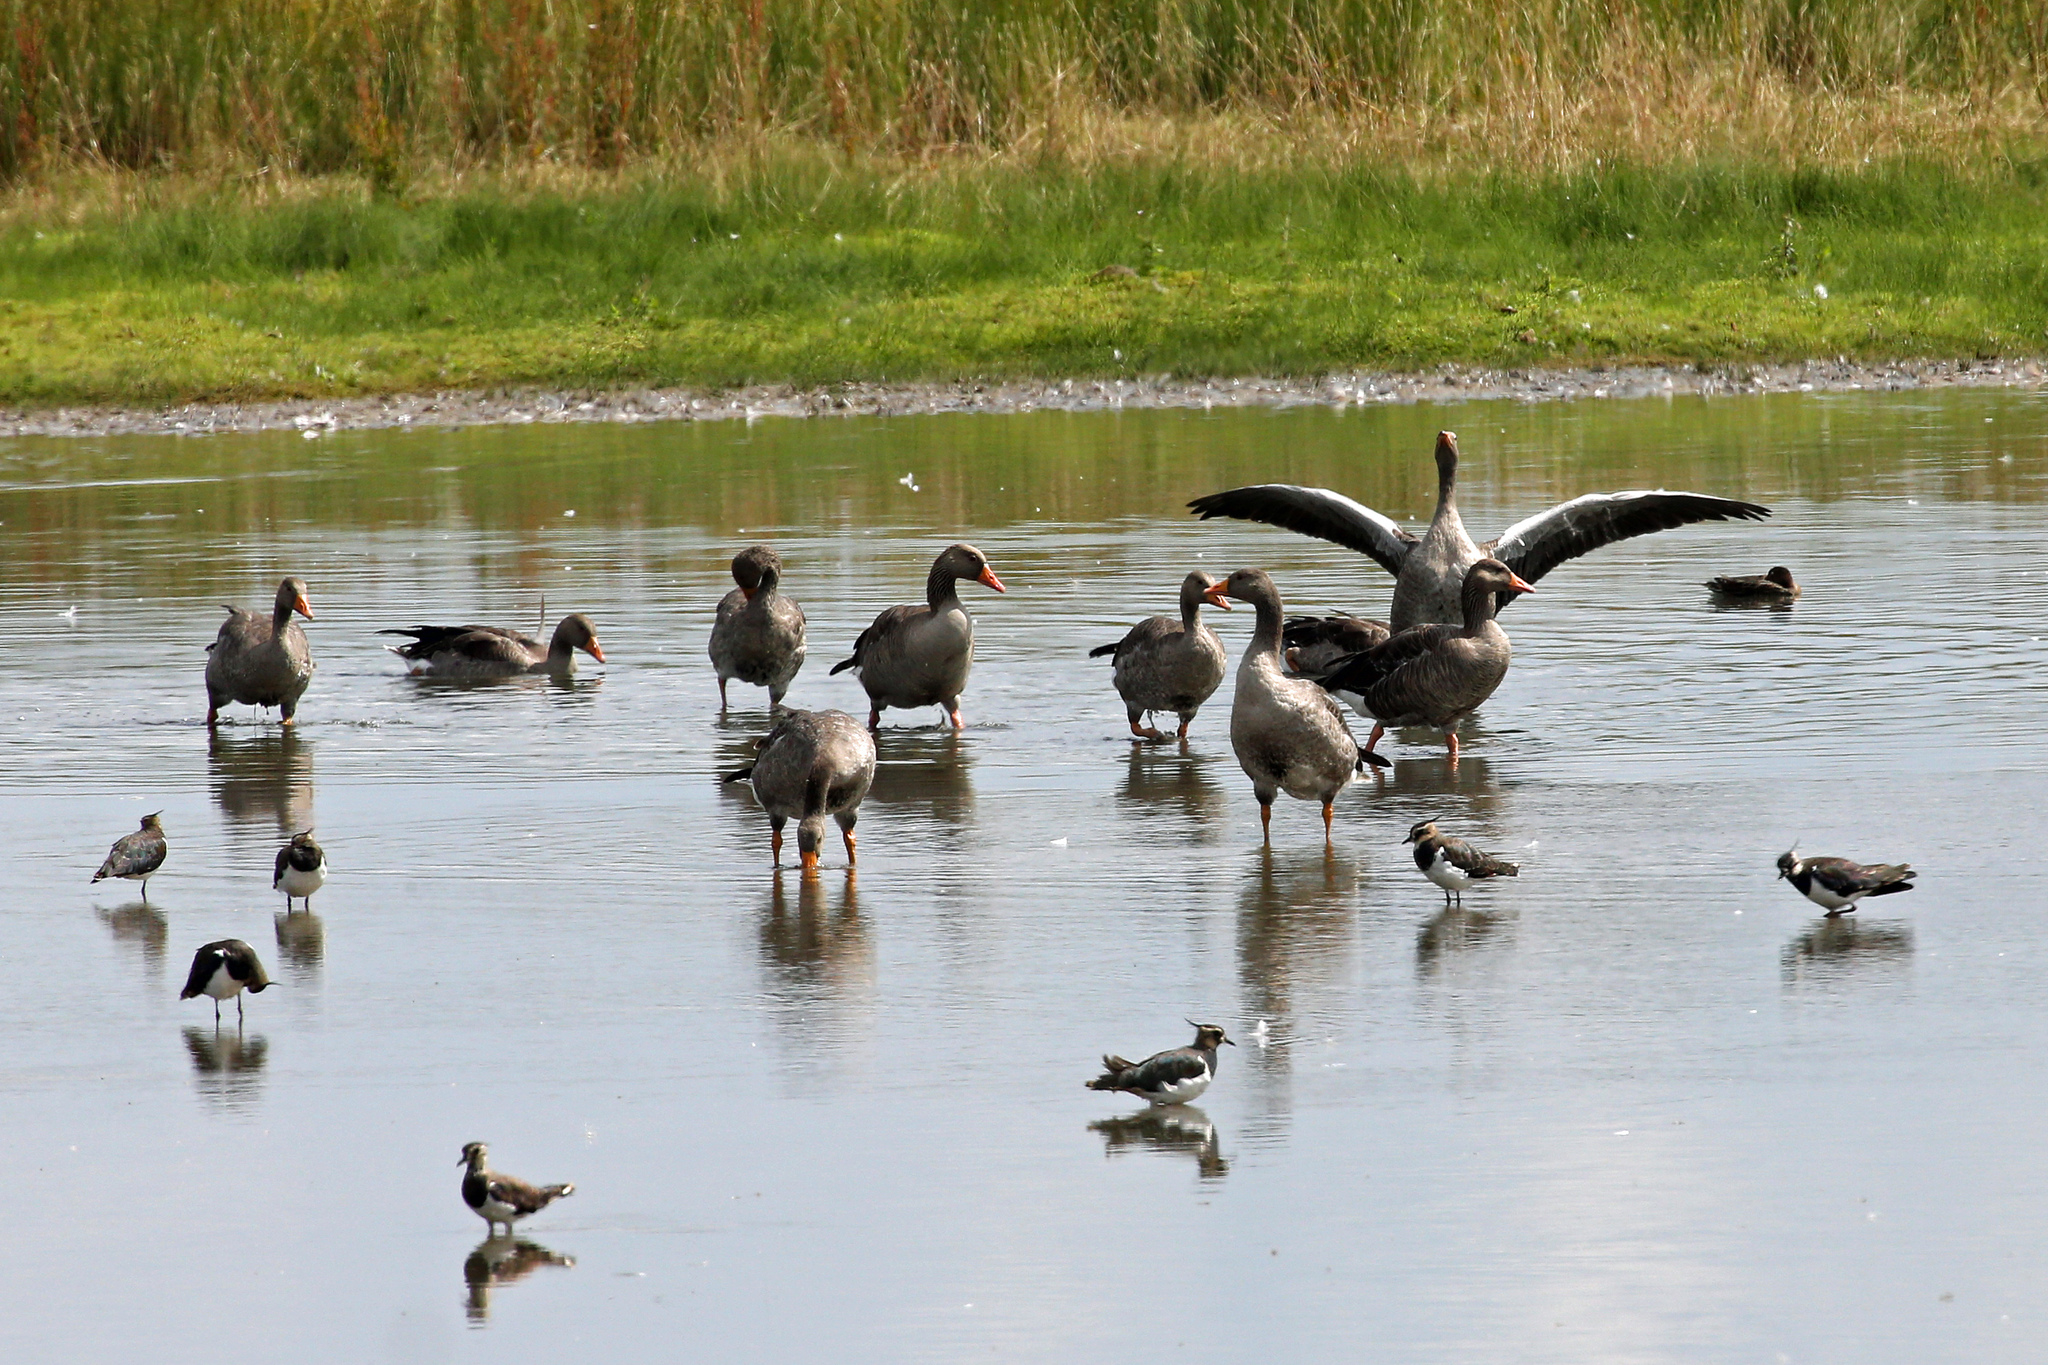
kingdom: Animalia
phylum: Chordata
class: Aves
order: Anseriformes
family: Anatidae
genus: Anser
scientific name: Anser anser
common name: Greylag goose
